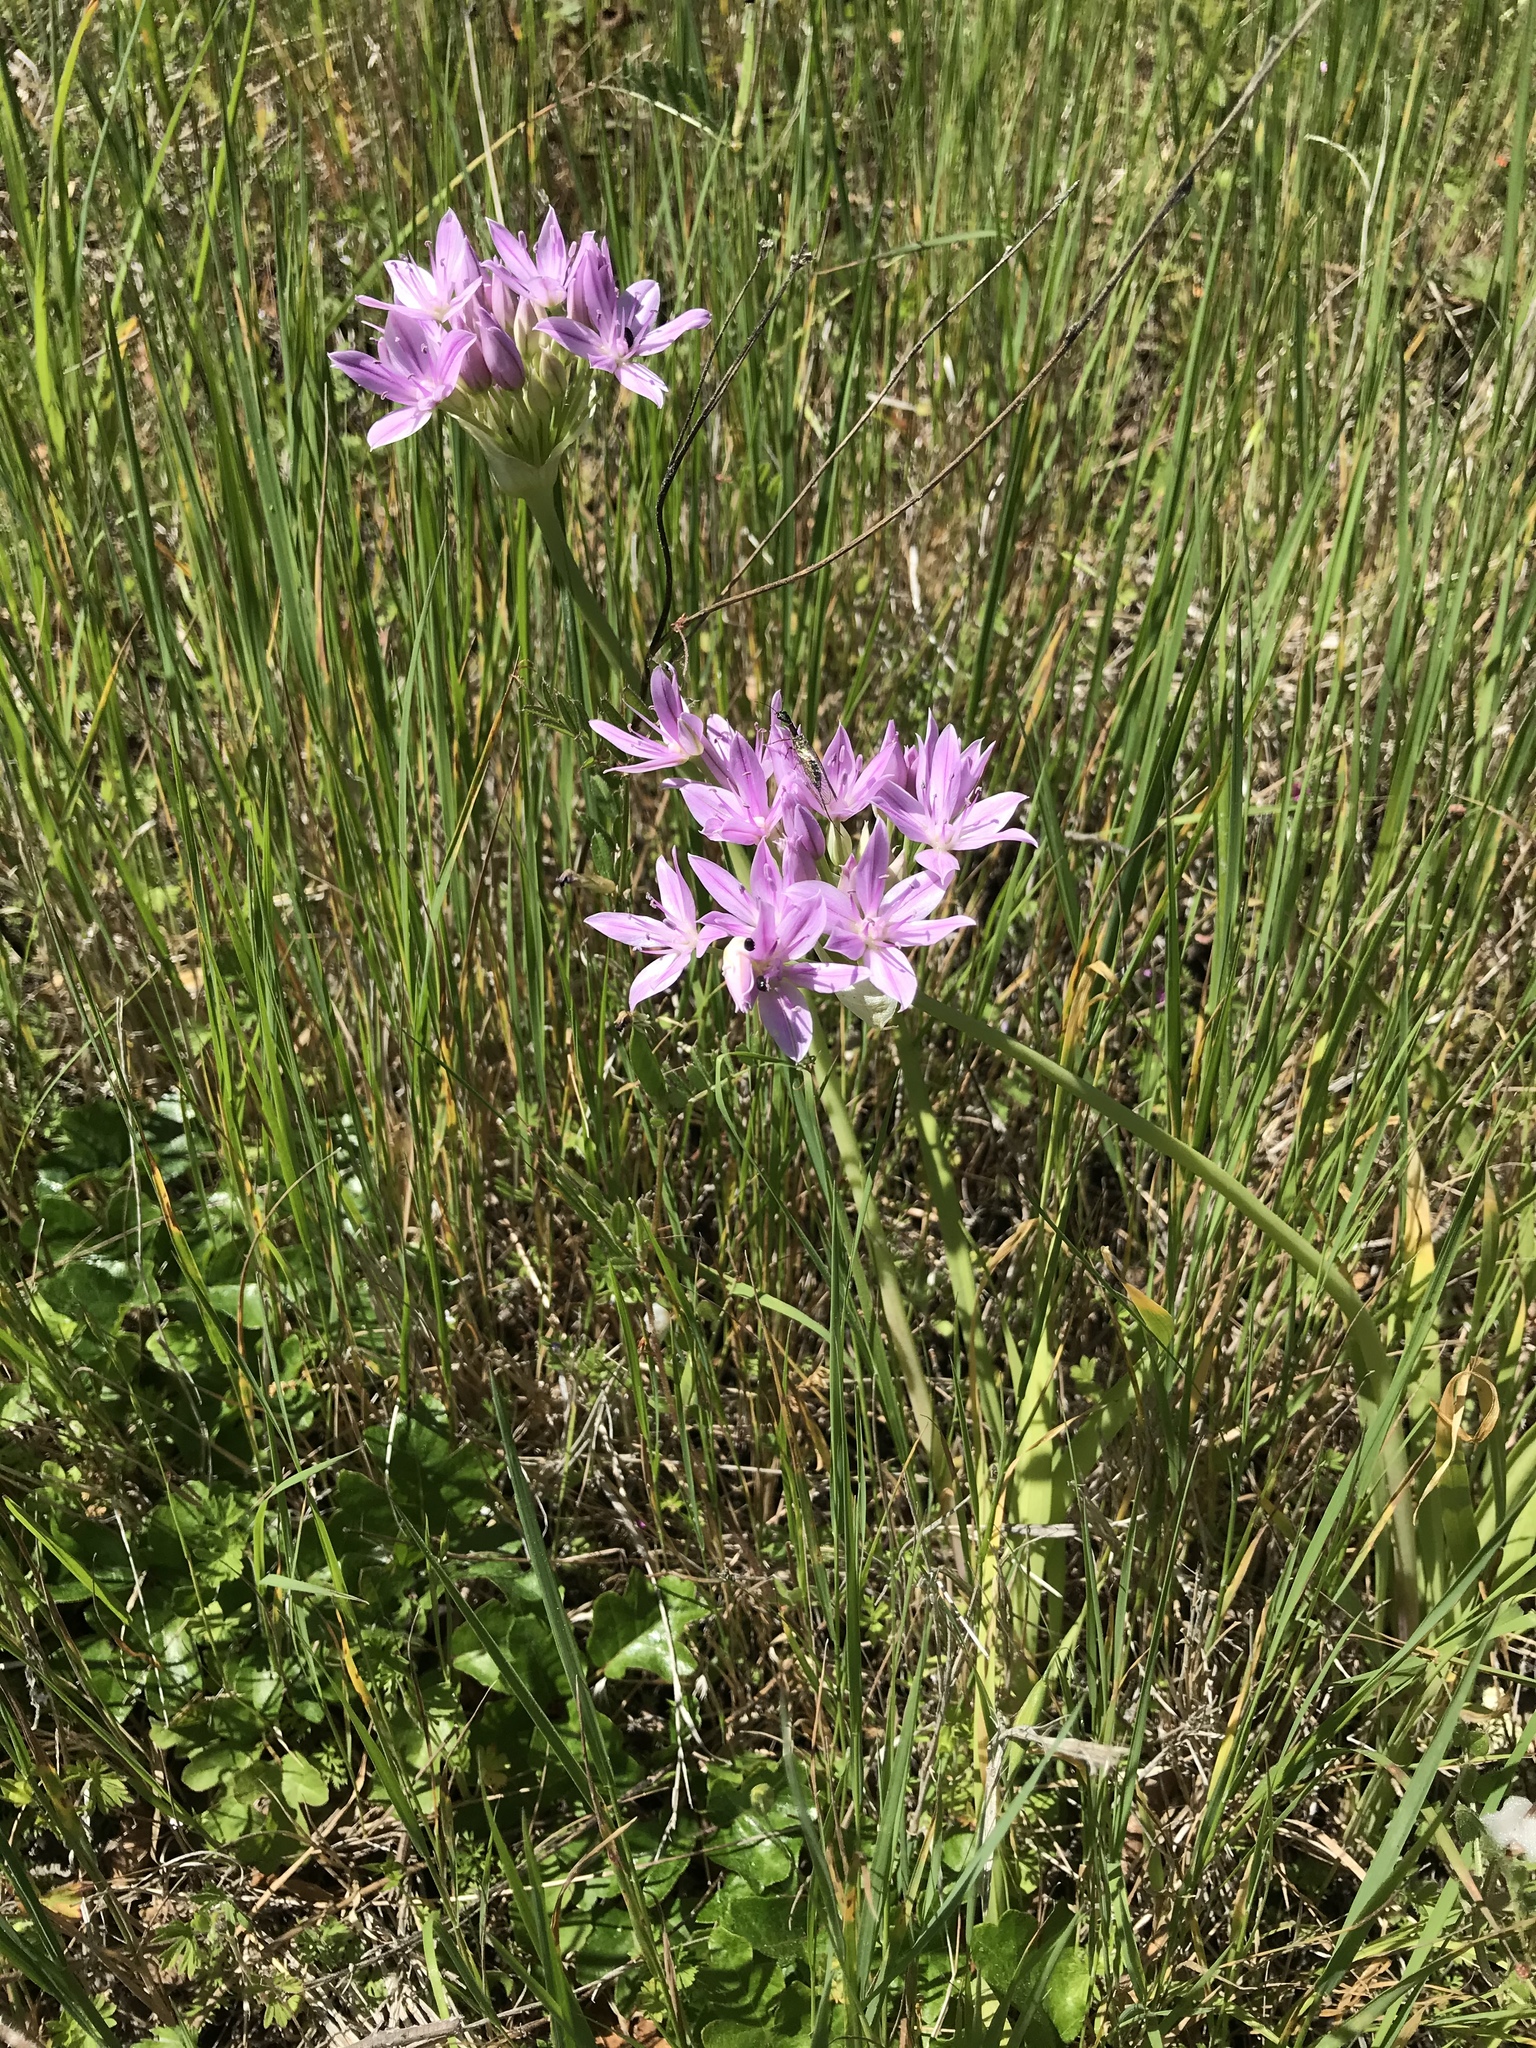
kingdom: Plantae
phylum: Tracheophyta
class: Liliopsida
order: Asparagales
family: Amaryllidaceae
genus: Allium
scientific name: Allium unifolium
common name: American garlic
